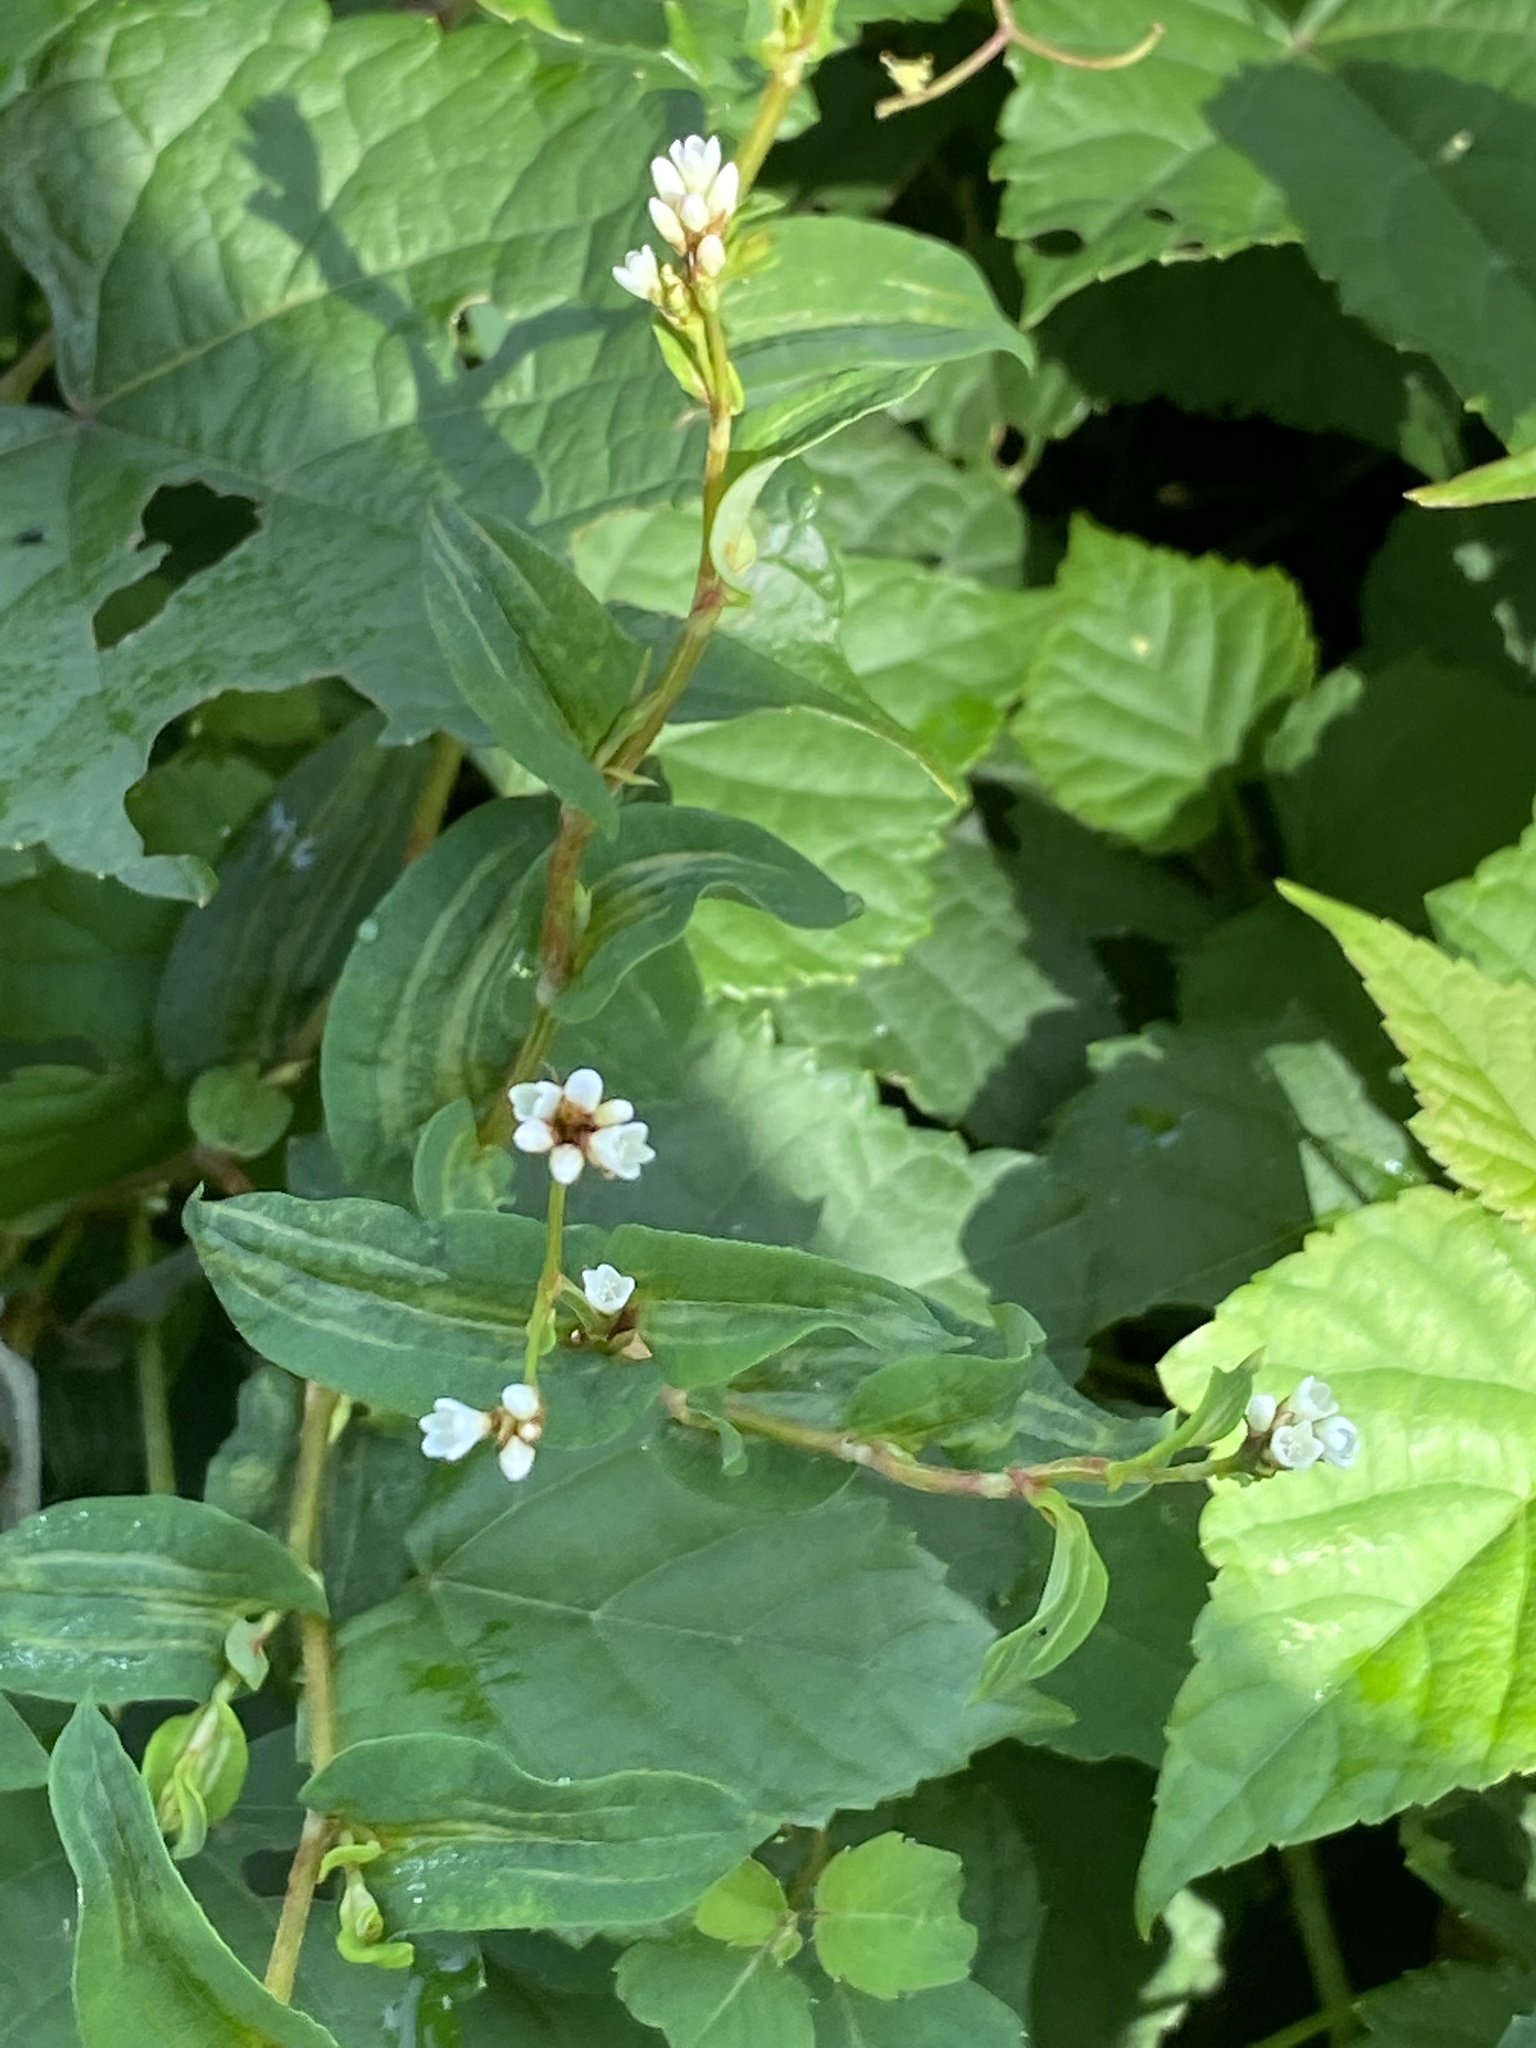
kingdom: Plantae
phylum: Tracheophyta
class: Magnoliopsida
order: Caryophyllales
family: Polygonaceae
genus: Persicaria
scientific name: Persicaria sagittata
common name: American tearthumb
